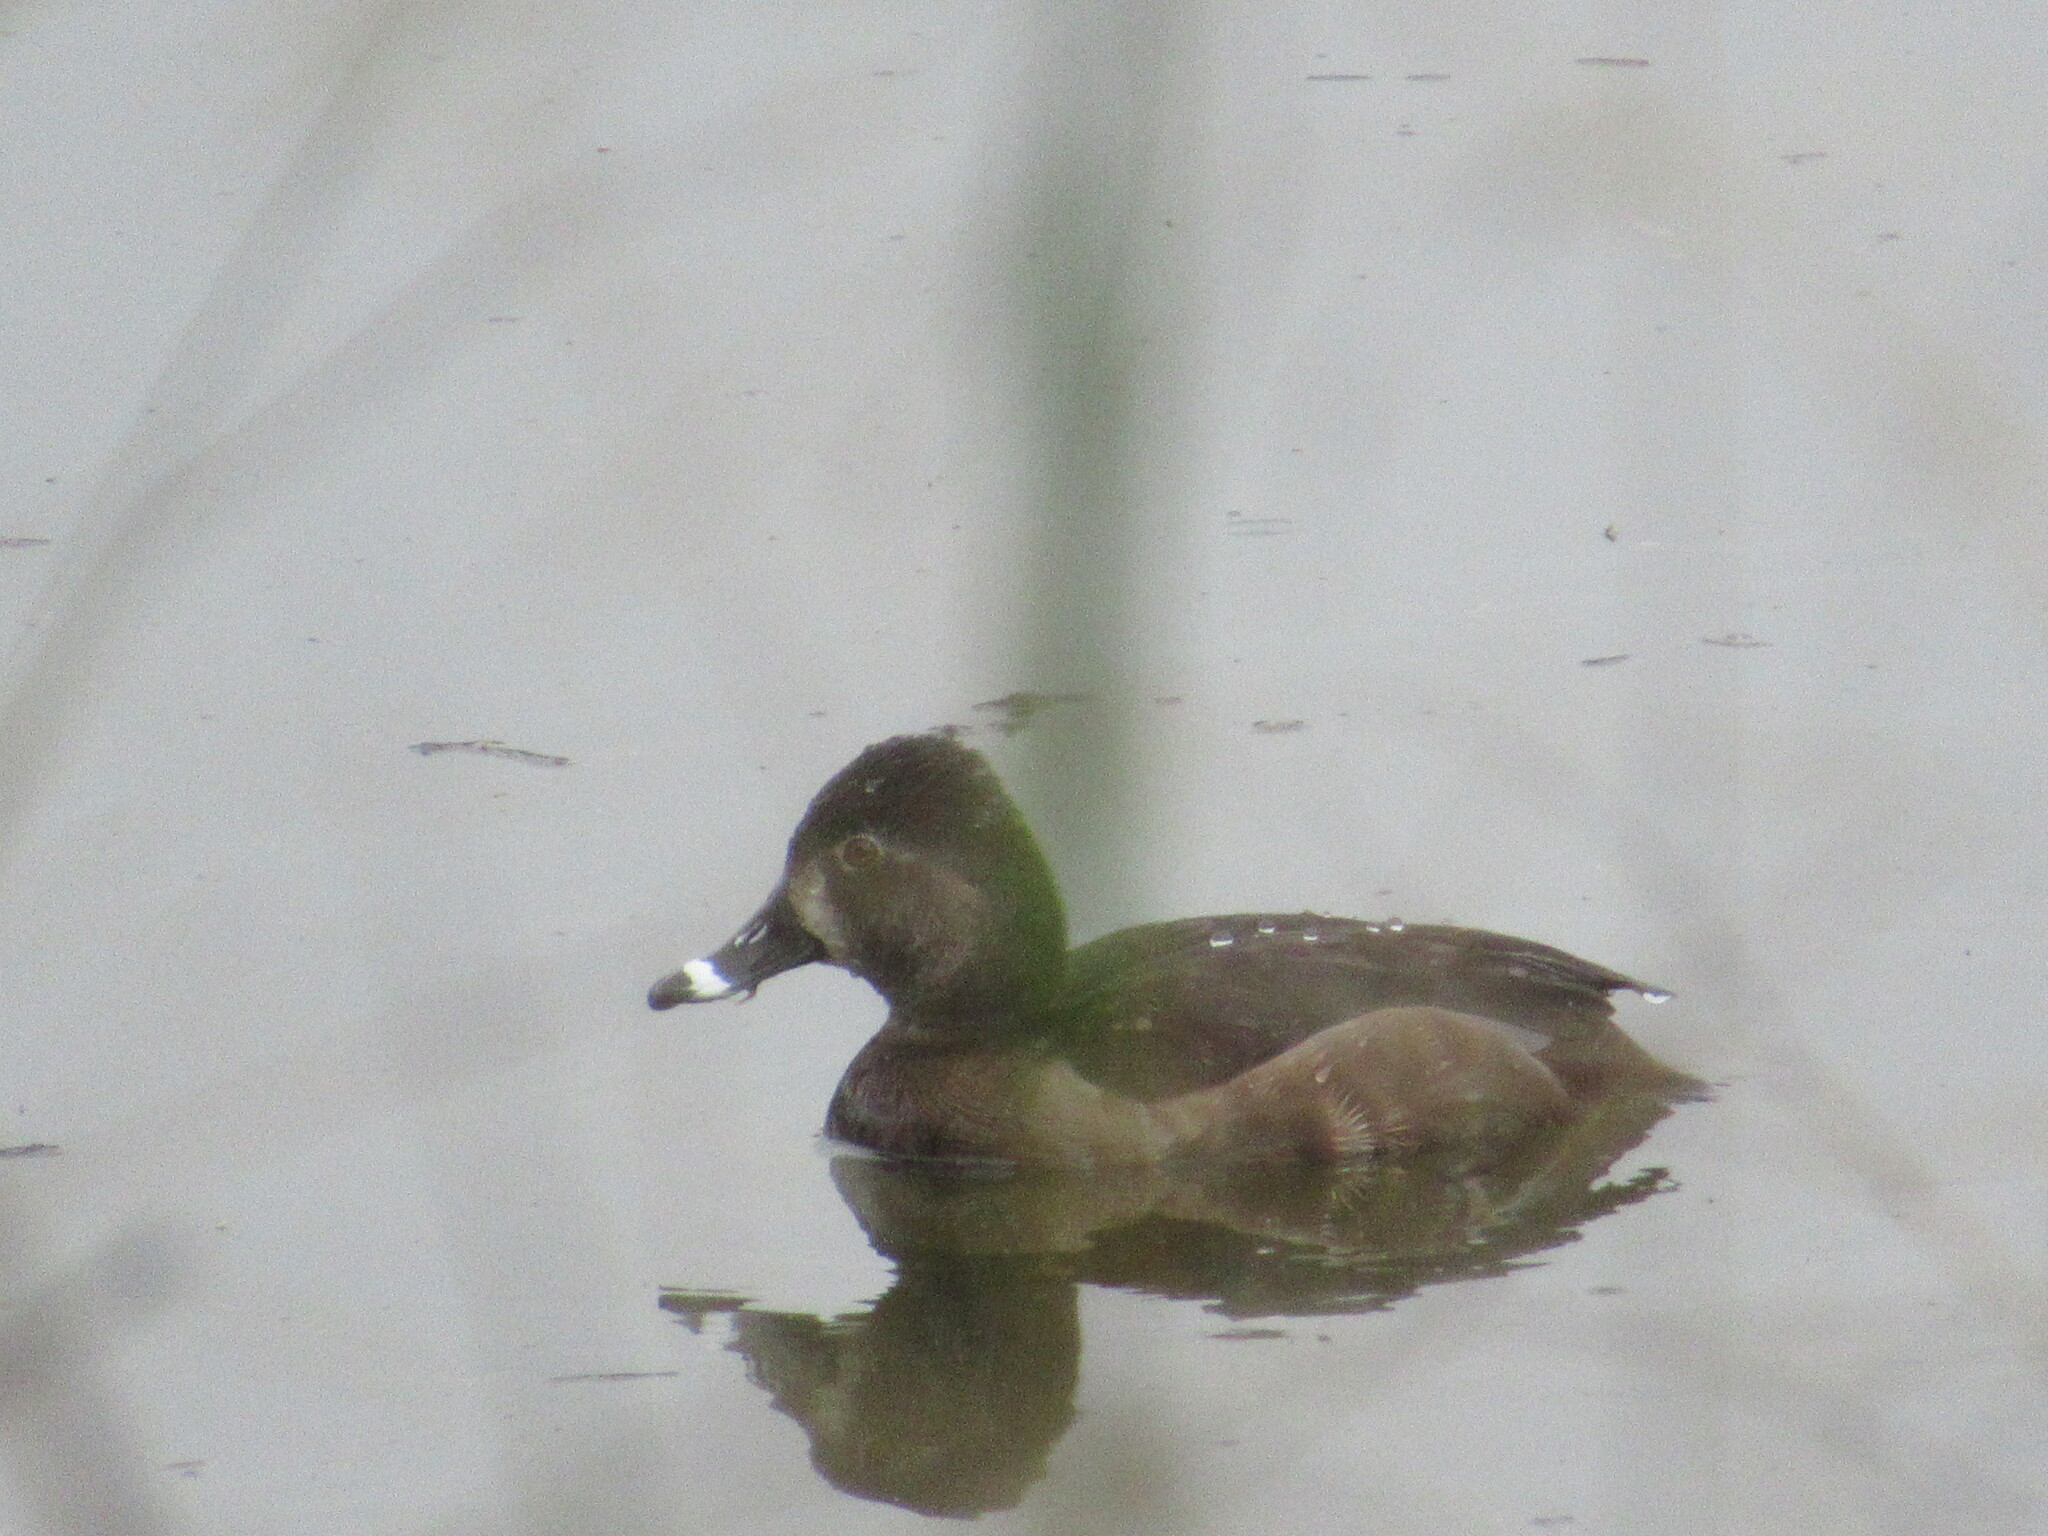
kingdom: Animalia
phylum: Chordata
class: Aves
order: Anseriformes
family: Anatidae
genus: Aythya
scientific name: Aythya collaris
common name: Ring-necked duck
